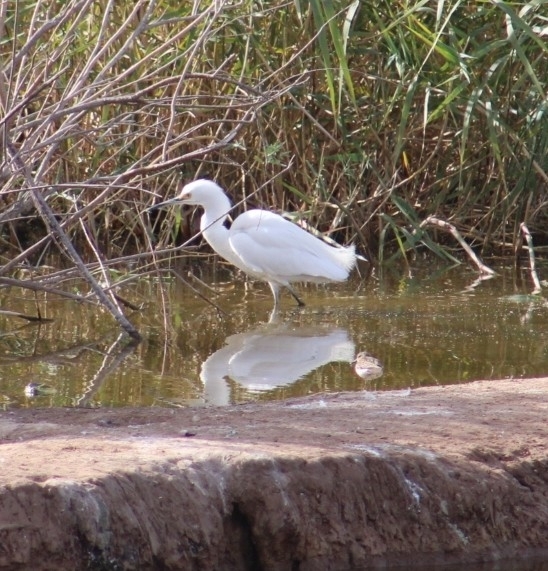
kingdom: Animalia
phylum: Chordata
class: Aves
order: Pelecaniformes
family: Ardeidae
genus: Egretta
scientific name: Egretta thula
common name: Snowy egret
